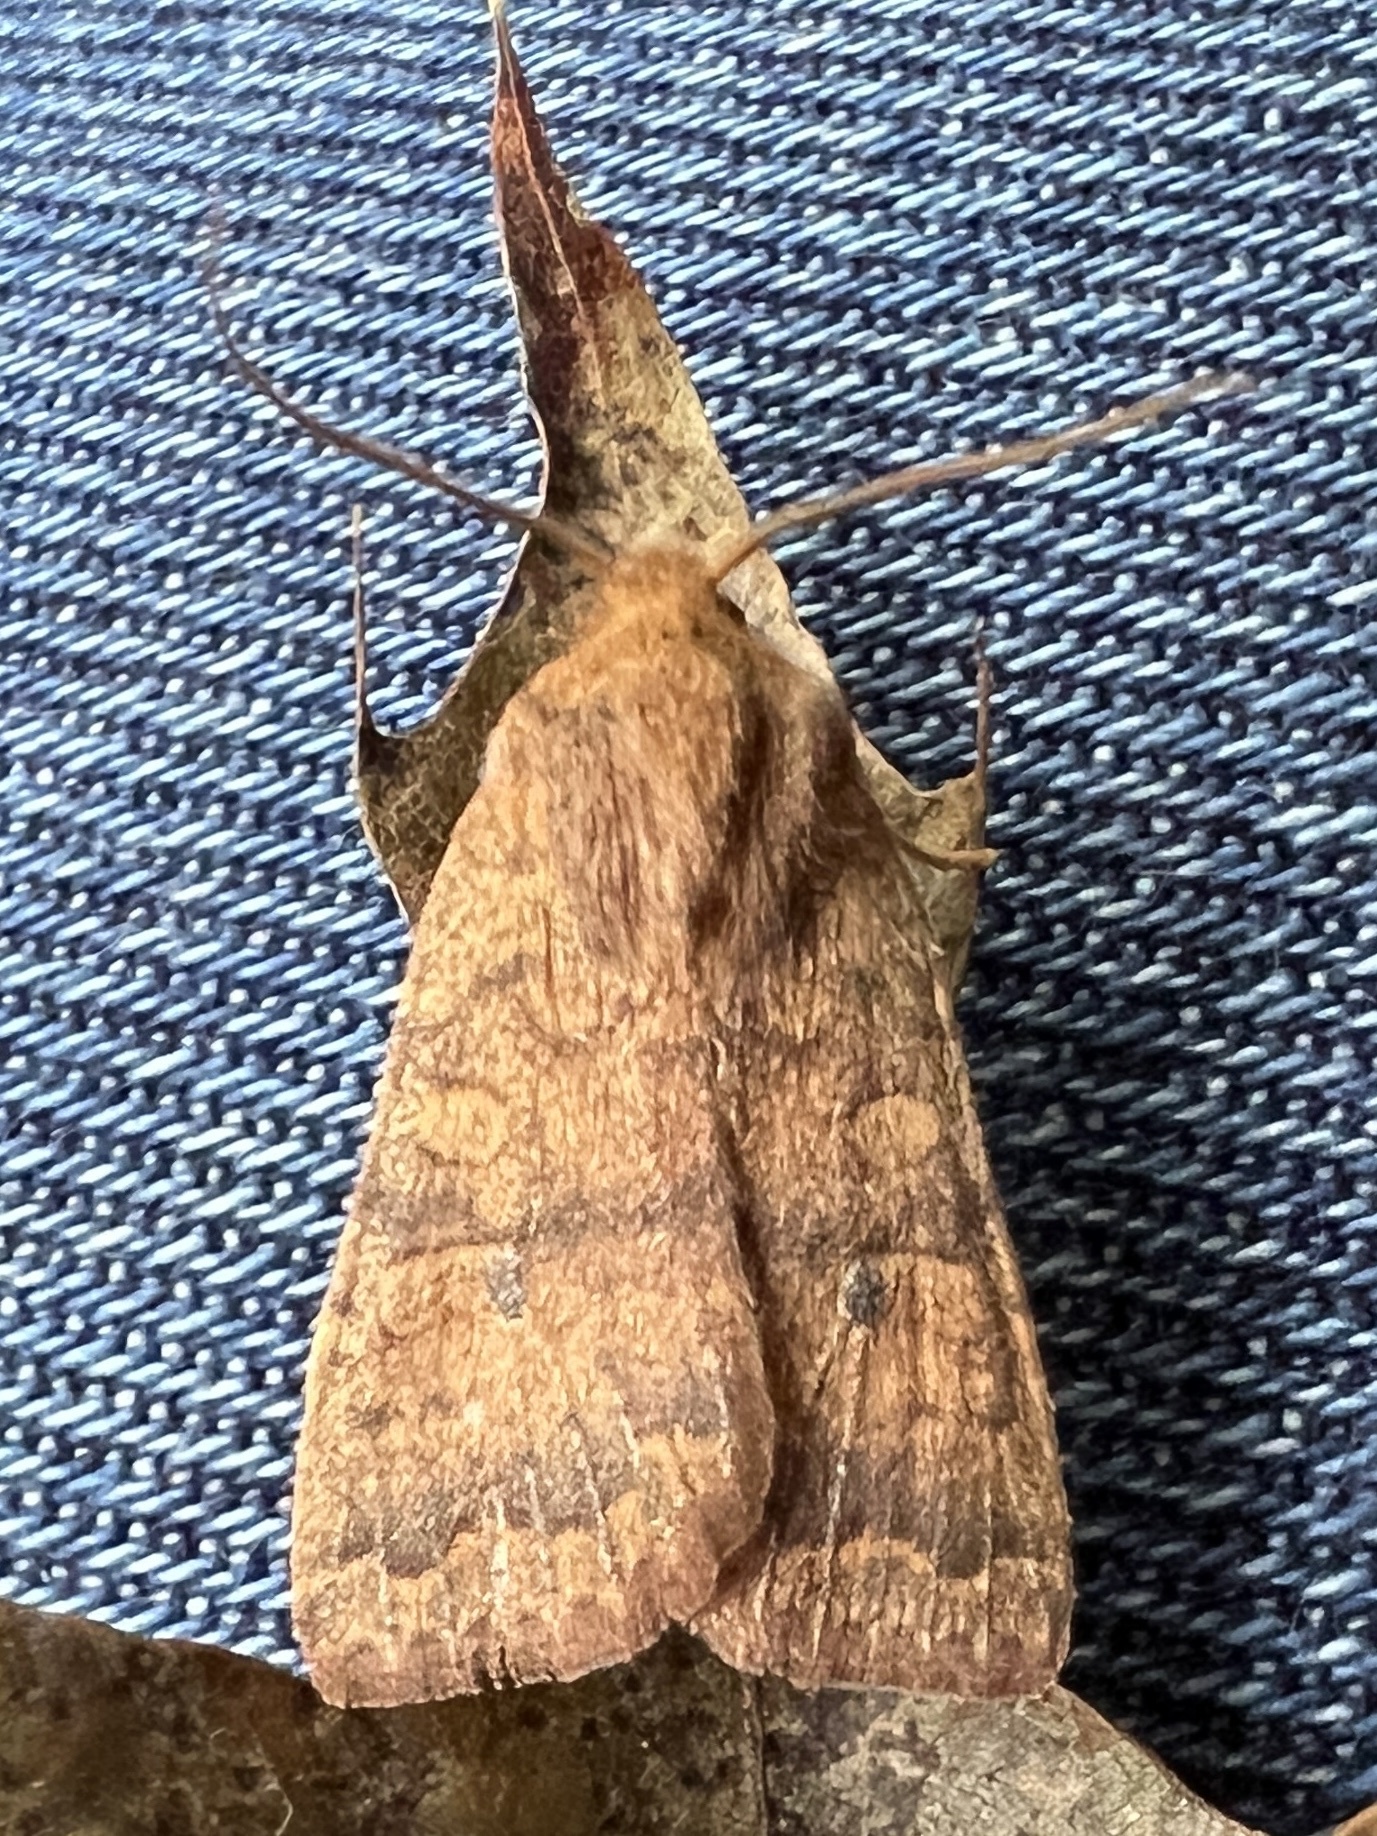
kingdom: Animalia
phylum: Arthropoda
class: Insecta
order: Lepidoptera
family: Noctuidae
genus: Agrochola
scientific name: Agrochola bicolorago
